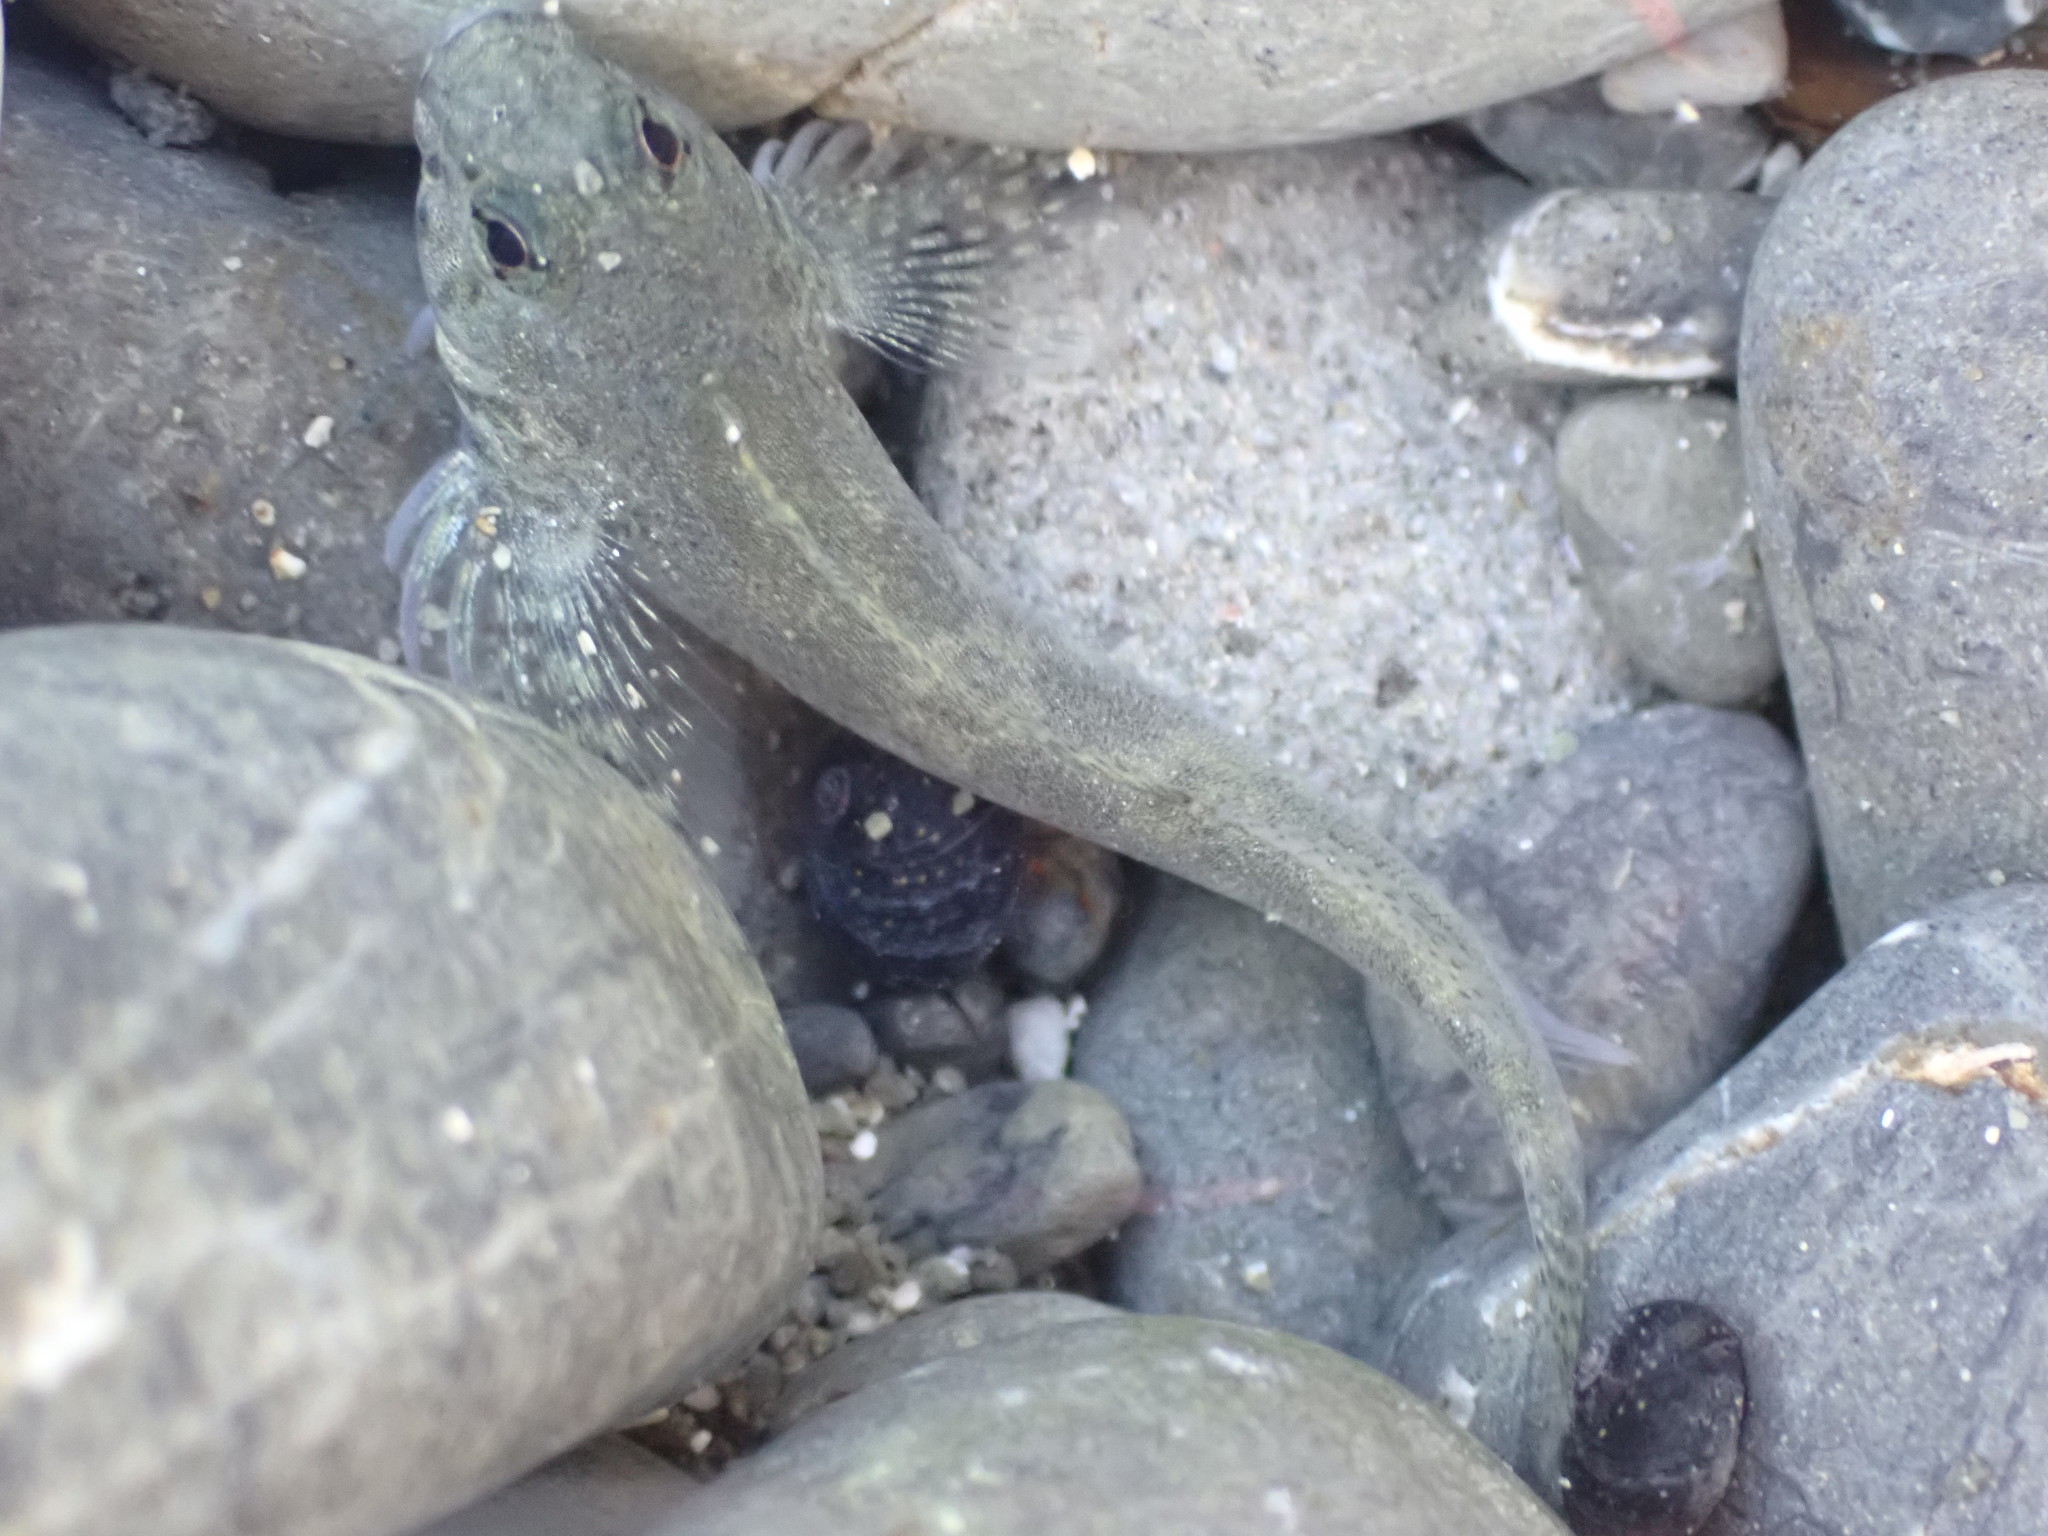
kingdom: Animalia
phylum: Chordata
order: Perciformes
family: Tripterygiidae
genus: Bellapiscis
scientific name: Bellapiscis medius
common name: Twister
